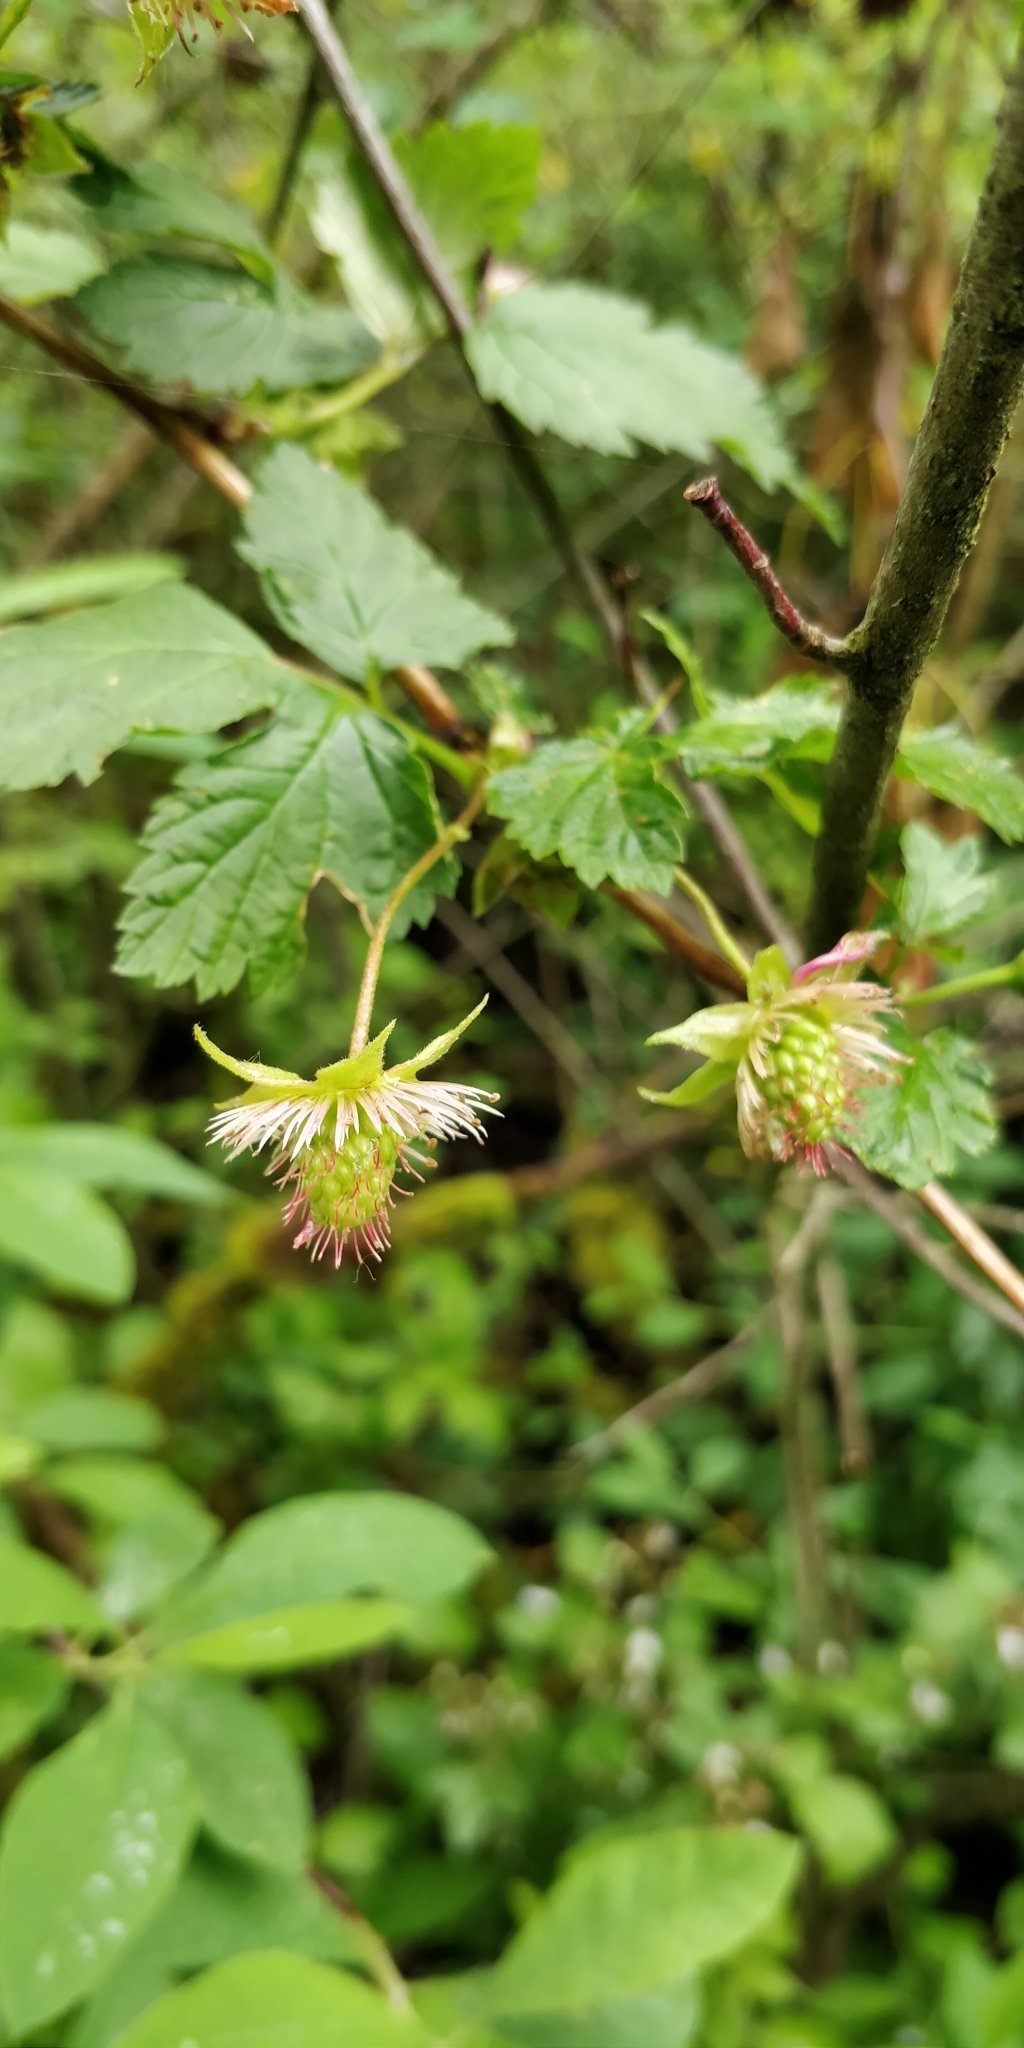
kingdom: Plantae
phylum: Tracheophyta
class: Magnoliopsida
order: Rosales
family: Rosaceae
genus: Rubus
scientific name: Rubus spectabilis
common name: Salmonberry
